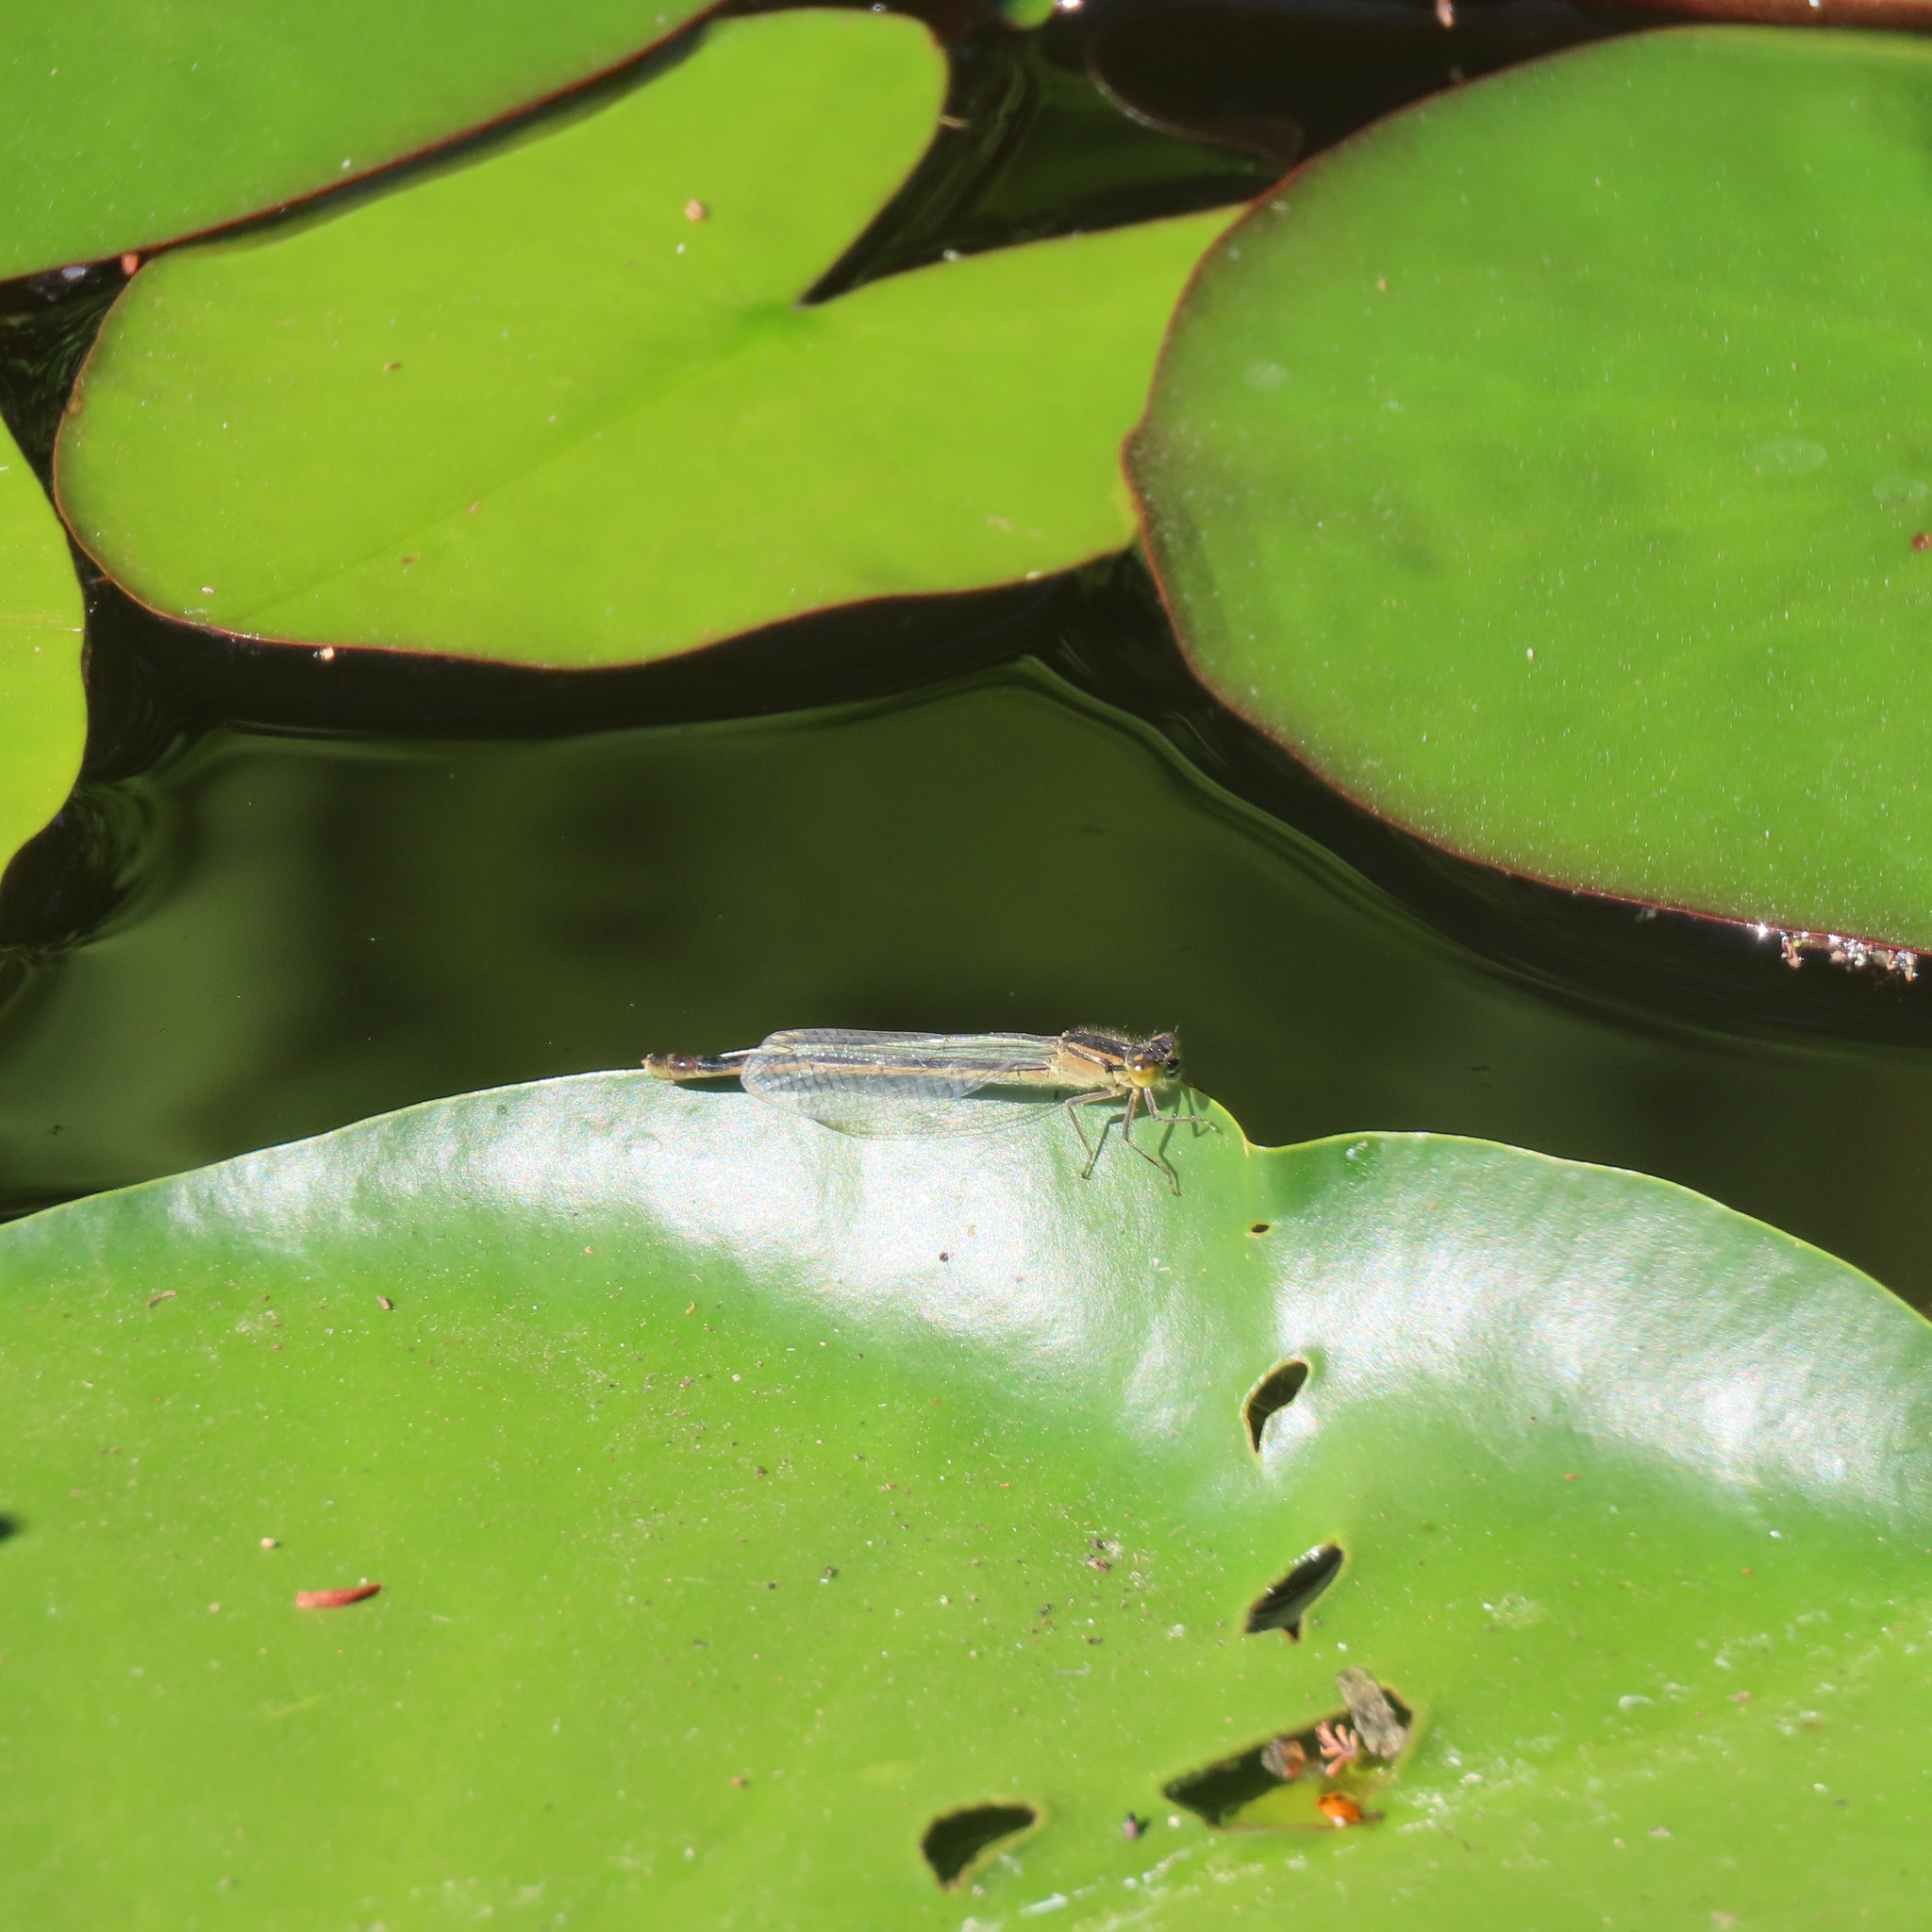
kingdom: Animalia
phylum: Arthropoda
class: Insecta
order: Odonata
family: Coenagrionidae
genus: Ischnura
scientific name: Ischnura heterosticta
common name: Common bluetail
